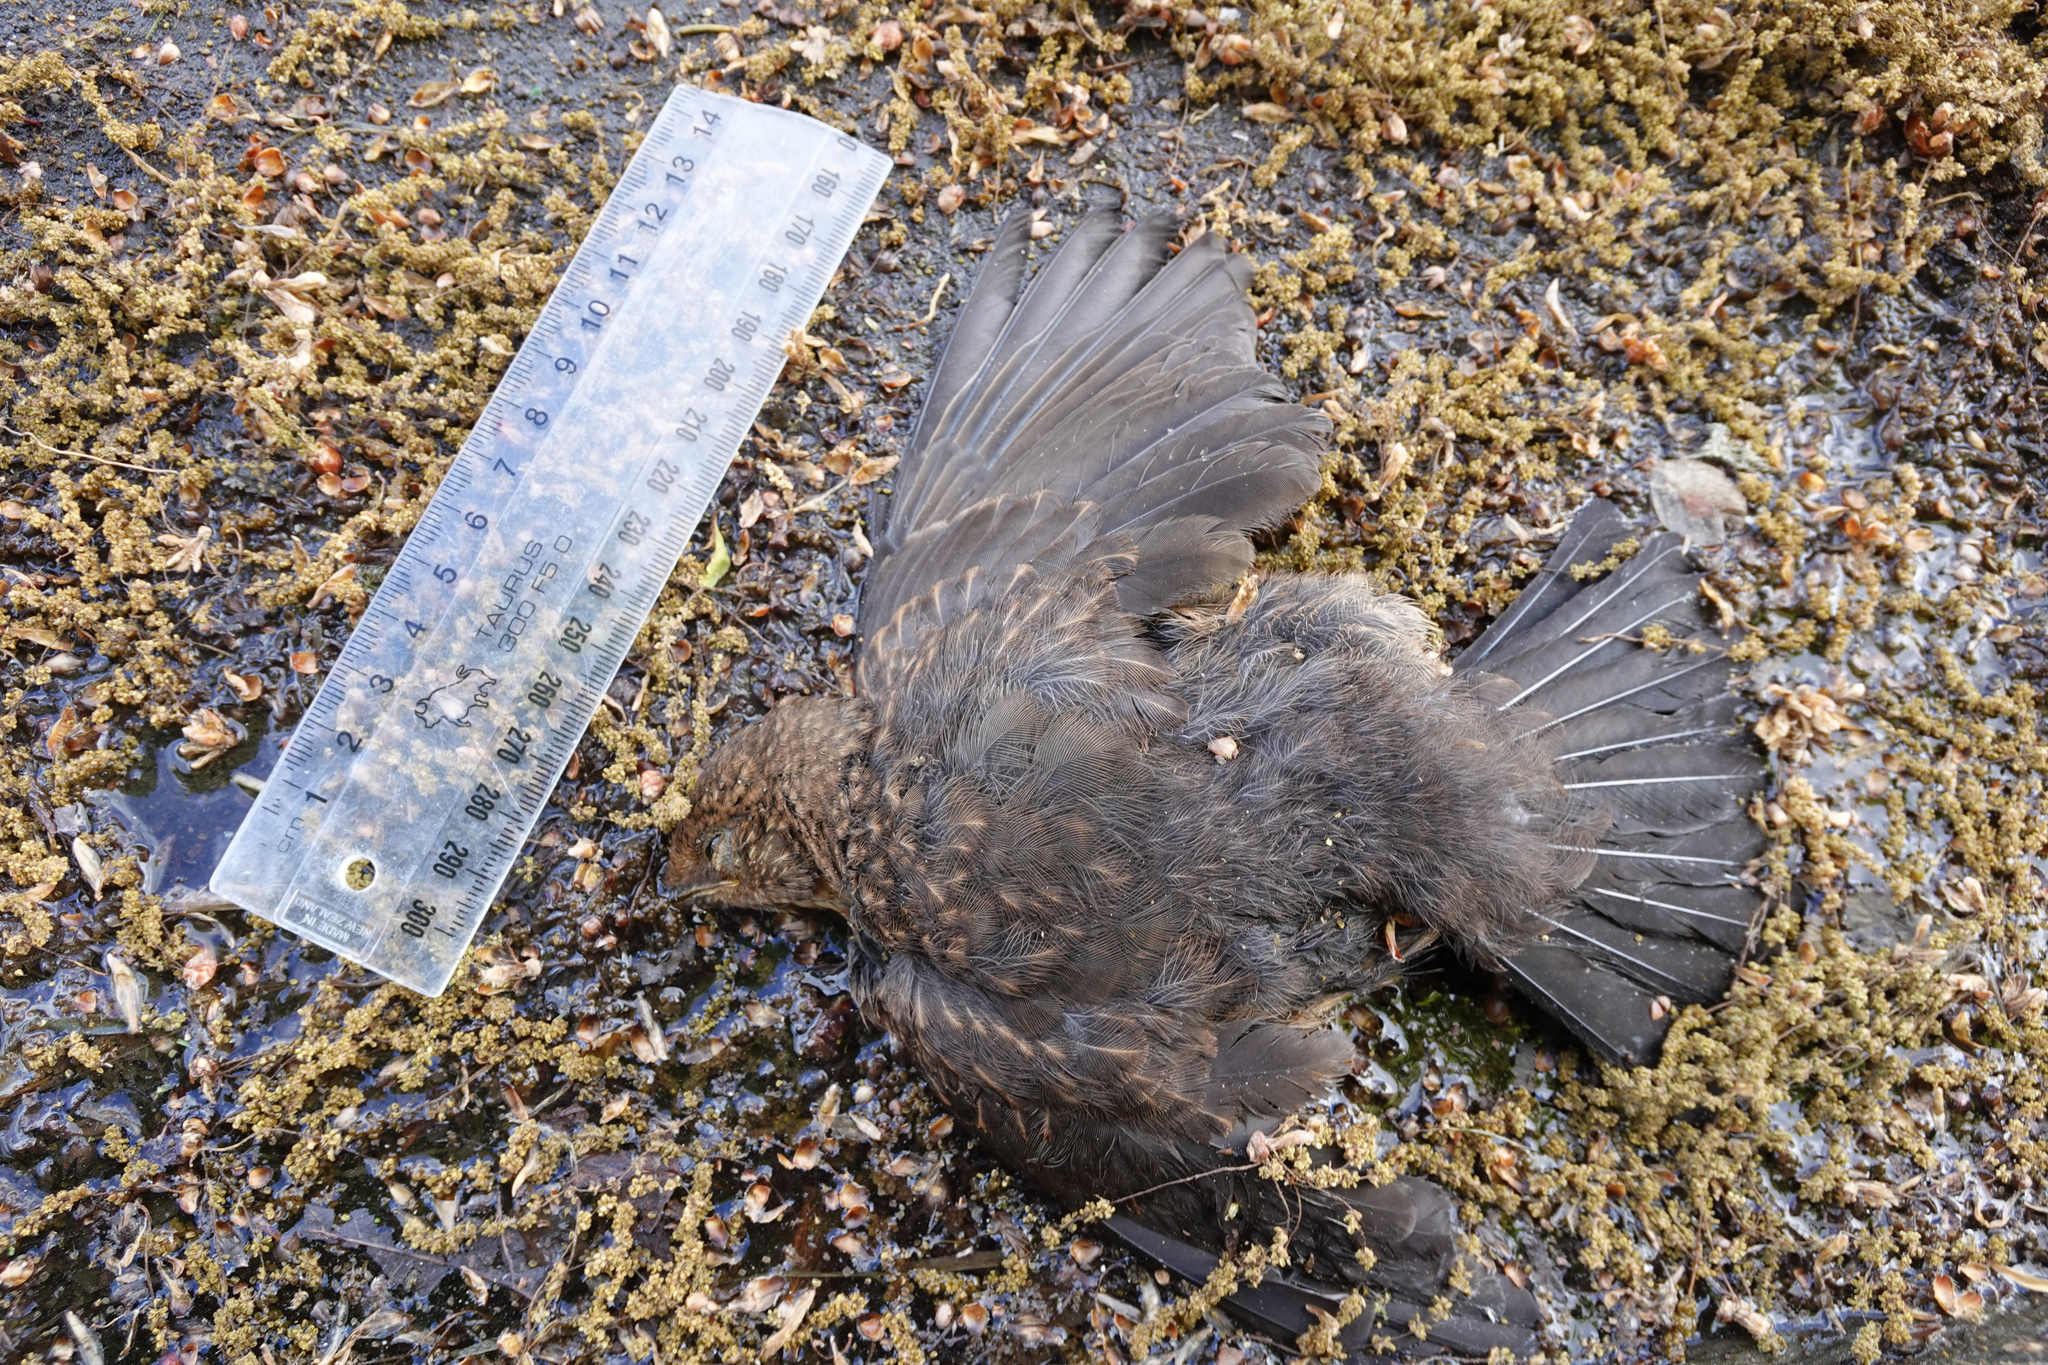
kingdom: Animalia
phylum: Chordata
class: Aves
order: Passeriformes
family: Turdidae
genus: Turdus
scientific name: Turdus merula
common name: Common blackbird
